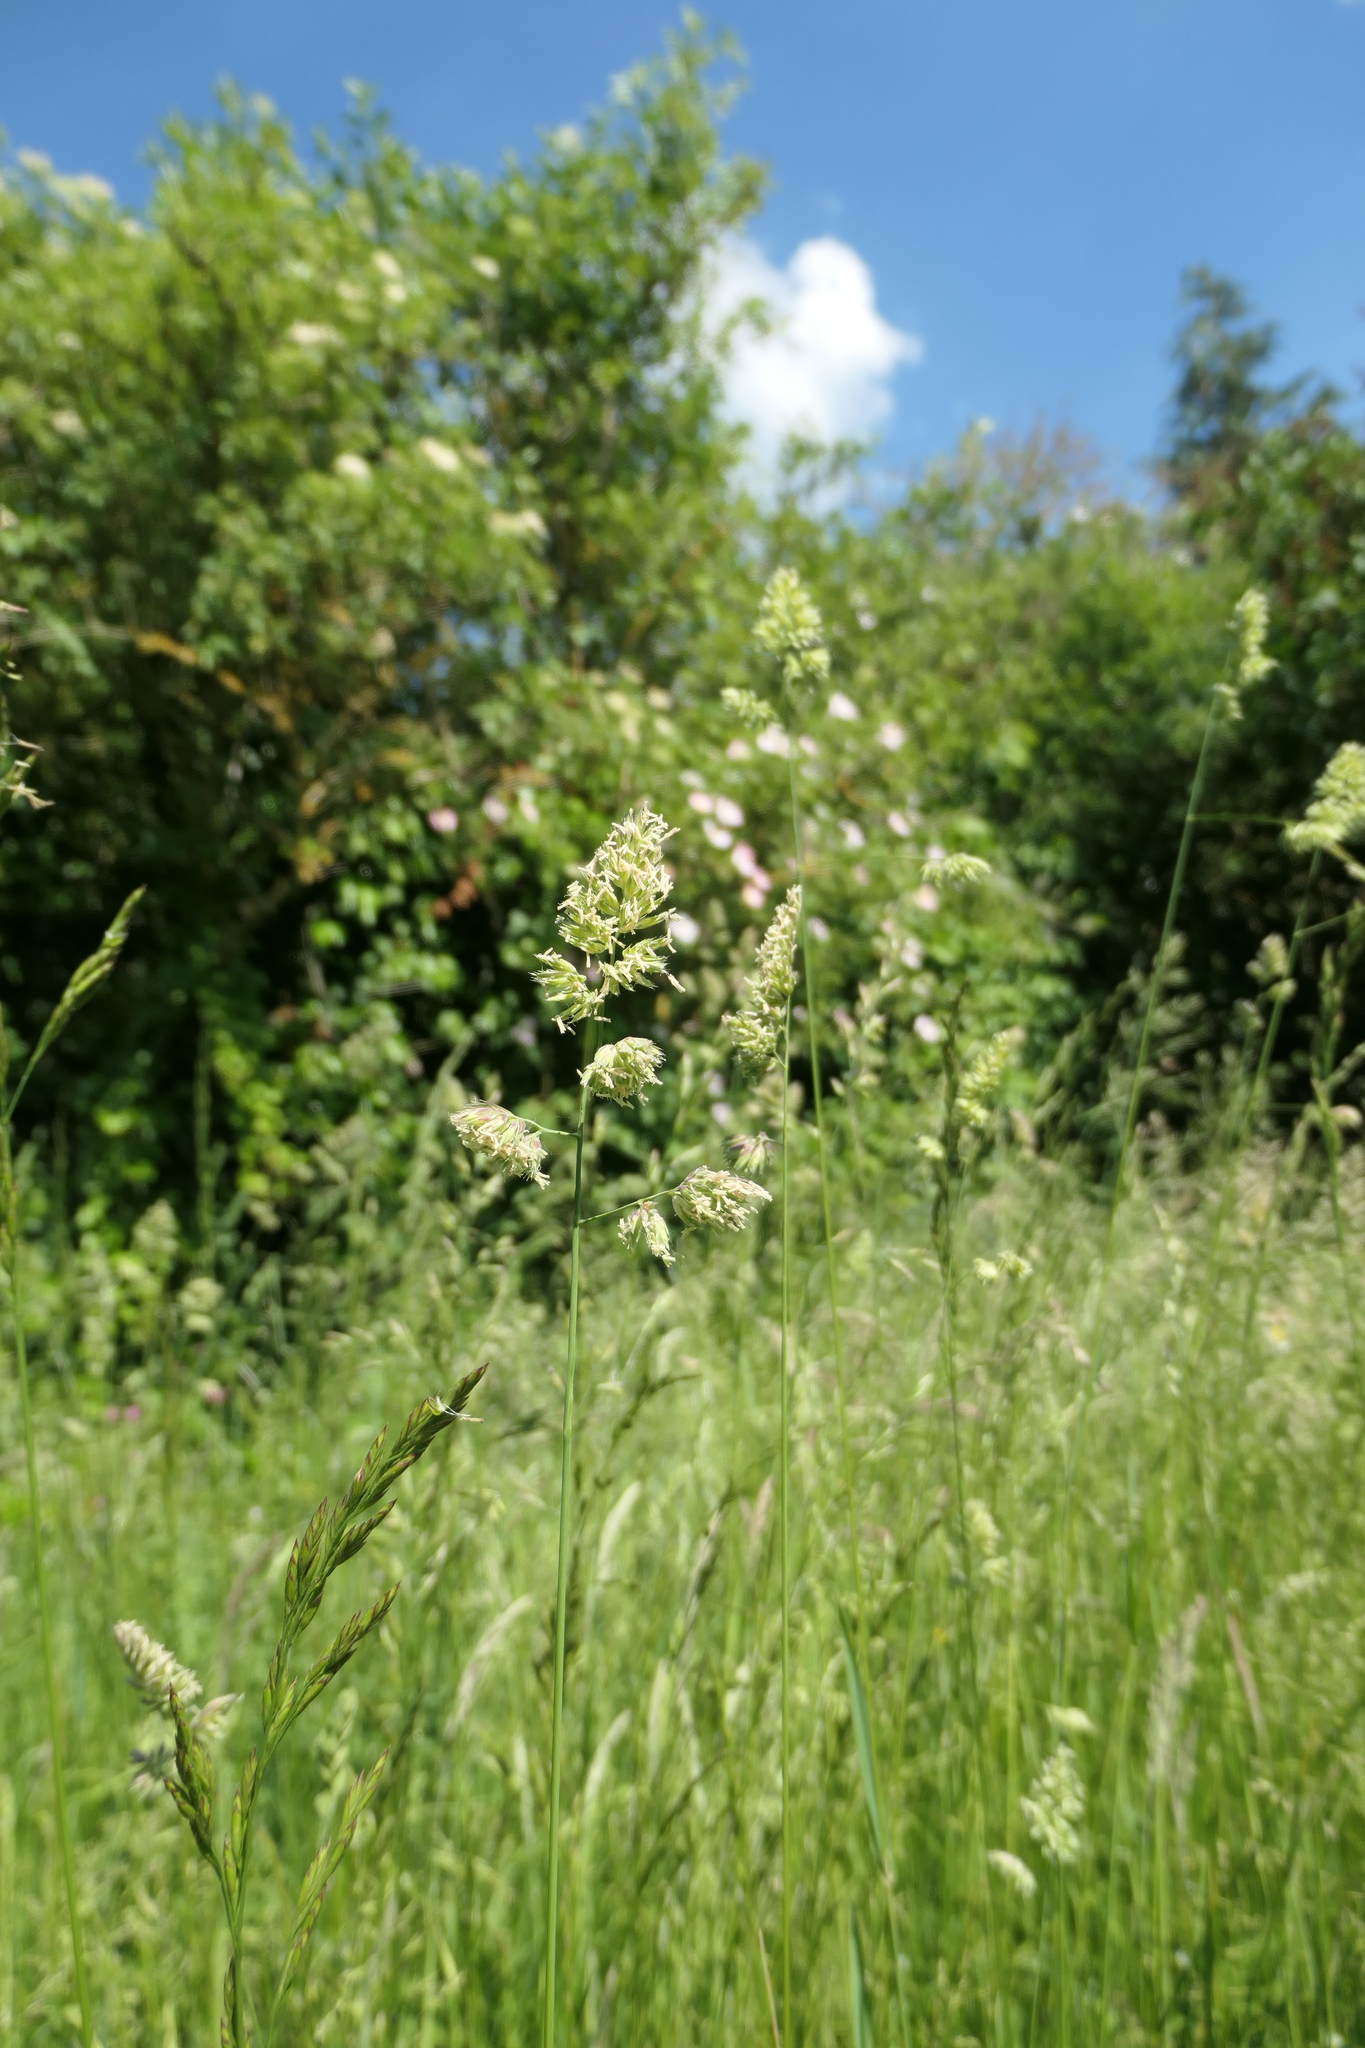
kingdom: Plantae
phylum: Tracheophyta
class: Liliopsida
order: Poales
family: Poaceae
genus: Dactylis
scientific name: Dactylis glomerata
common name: Orchardgrass
